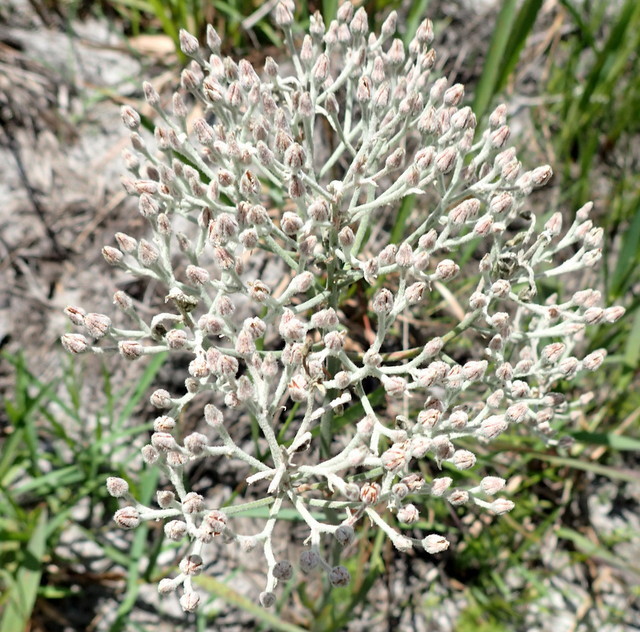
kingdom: Plantae
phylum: Tracheophyta
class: Liliopsida
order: Dioscoreales
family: Nartheciaceae
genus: Lophiola
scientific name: Lophiola aurea
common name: Golden-crest
